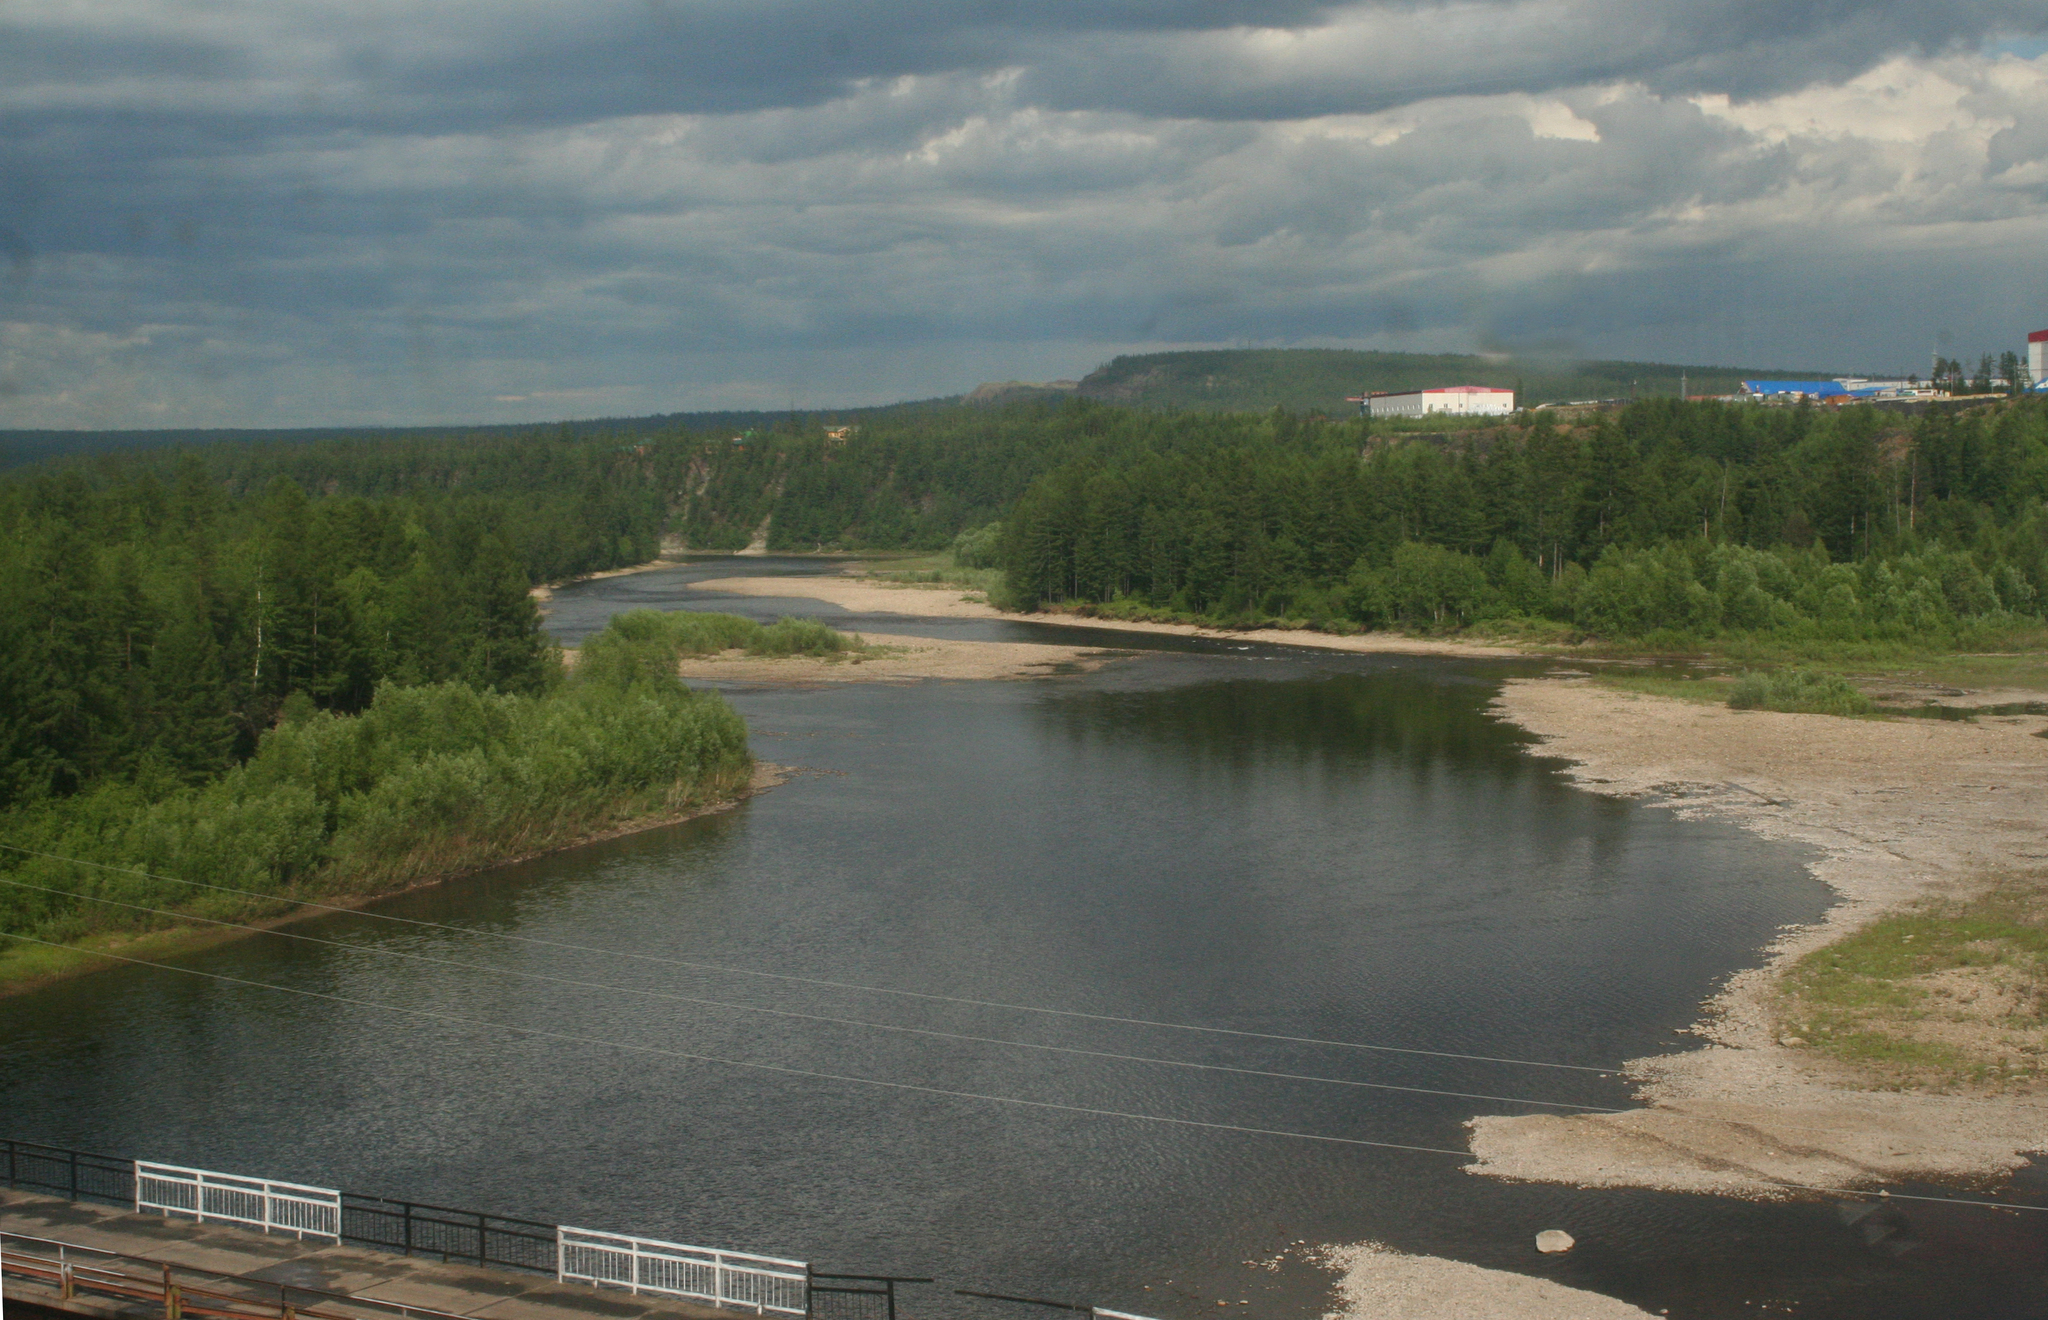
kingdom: Plantae
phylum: Tracheophyta
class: Pinopsida
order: Pinales
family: Pinaceae
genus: Larix
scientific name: Larix gmelinii
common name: Dahurian larch
